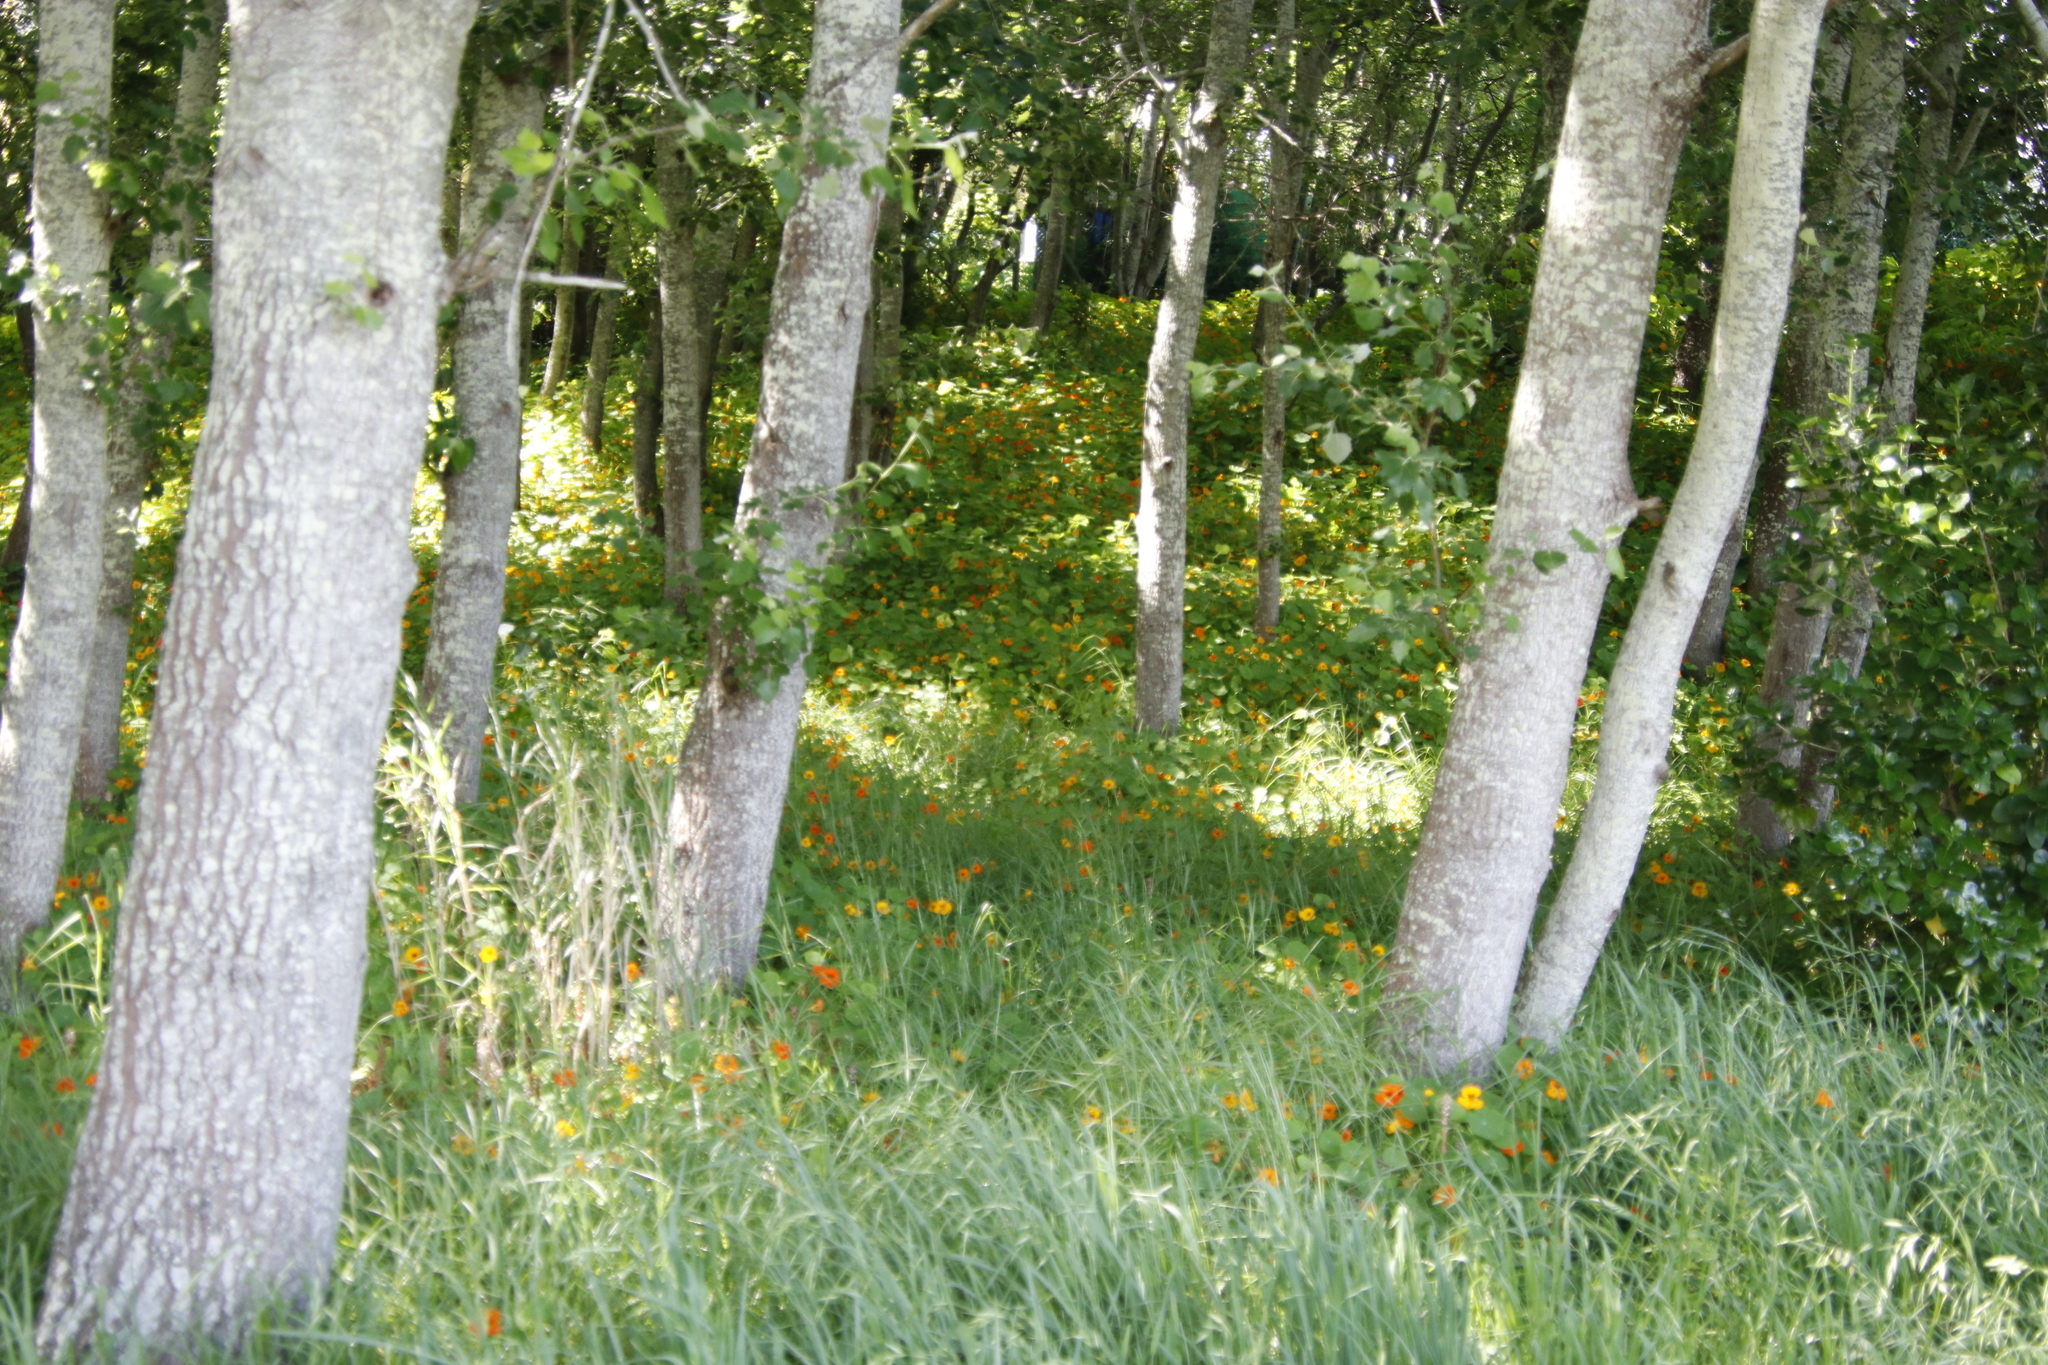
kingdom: Plantae
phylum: Tracheophyta
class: Magnoliopsida
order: Brassicales
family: Tropaeolaceae
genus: Tropaeolum
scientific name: Tropaeolum majus
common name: Nasturtium
